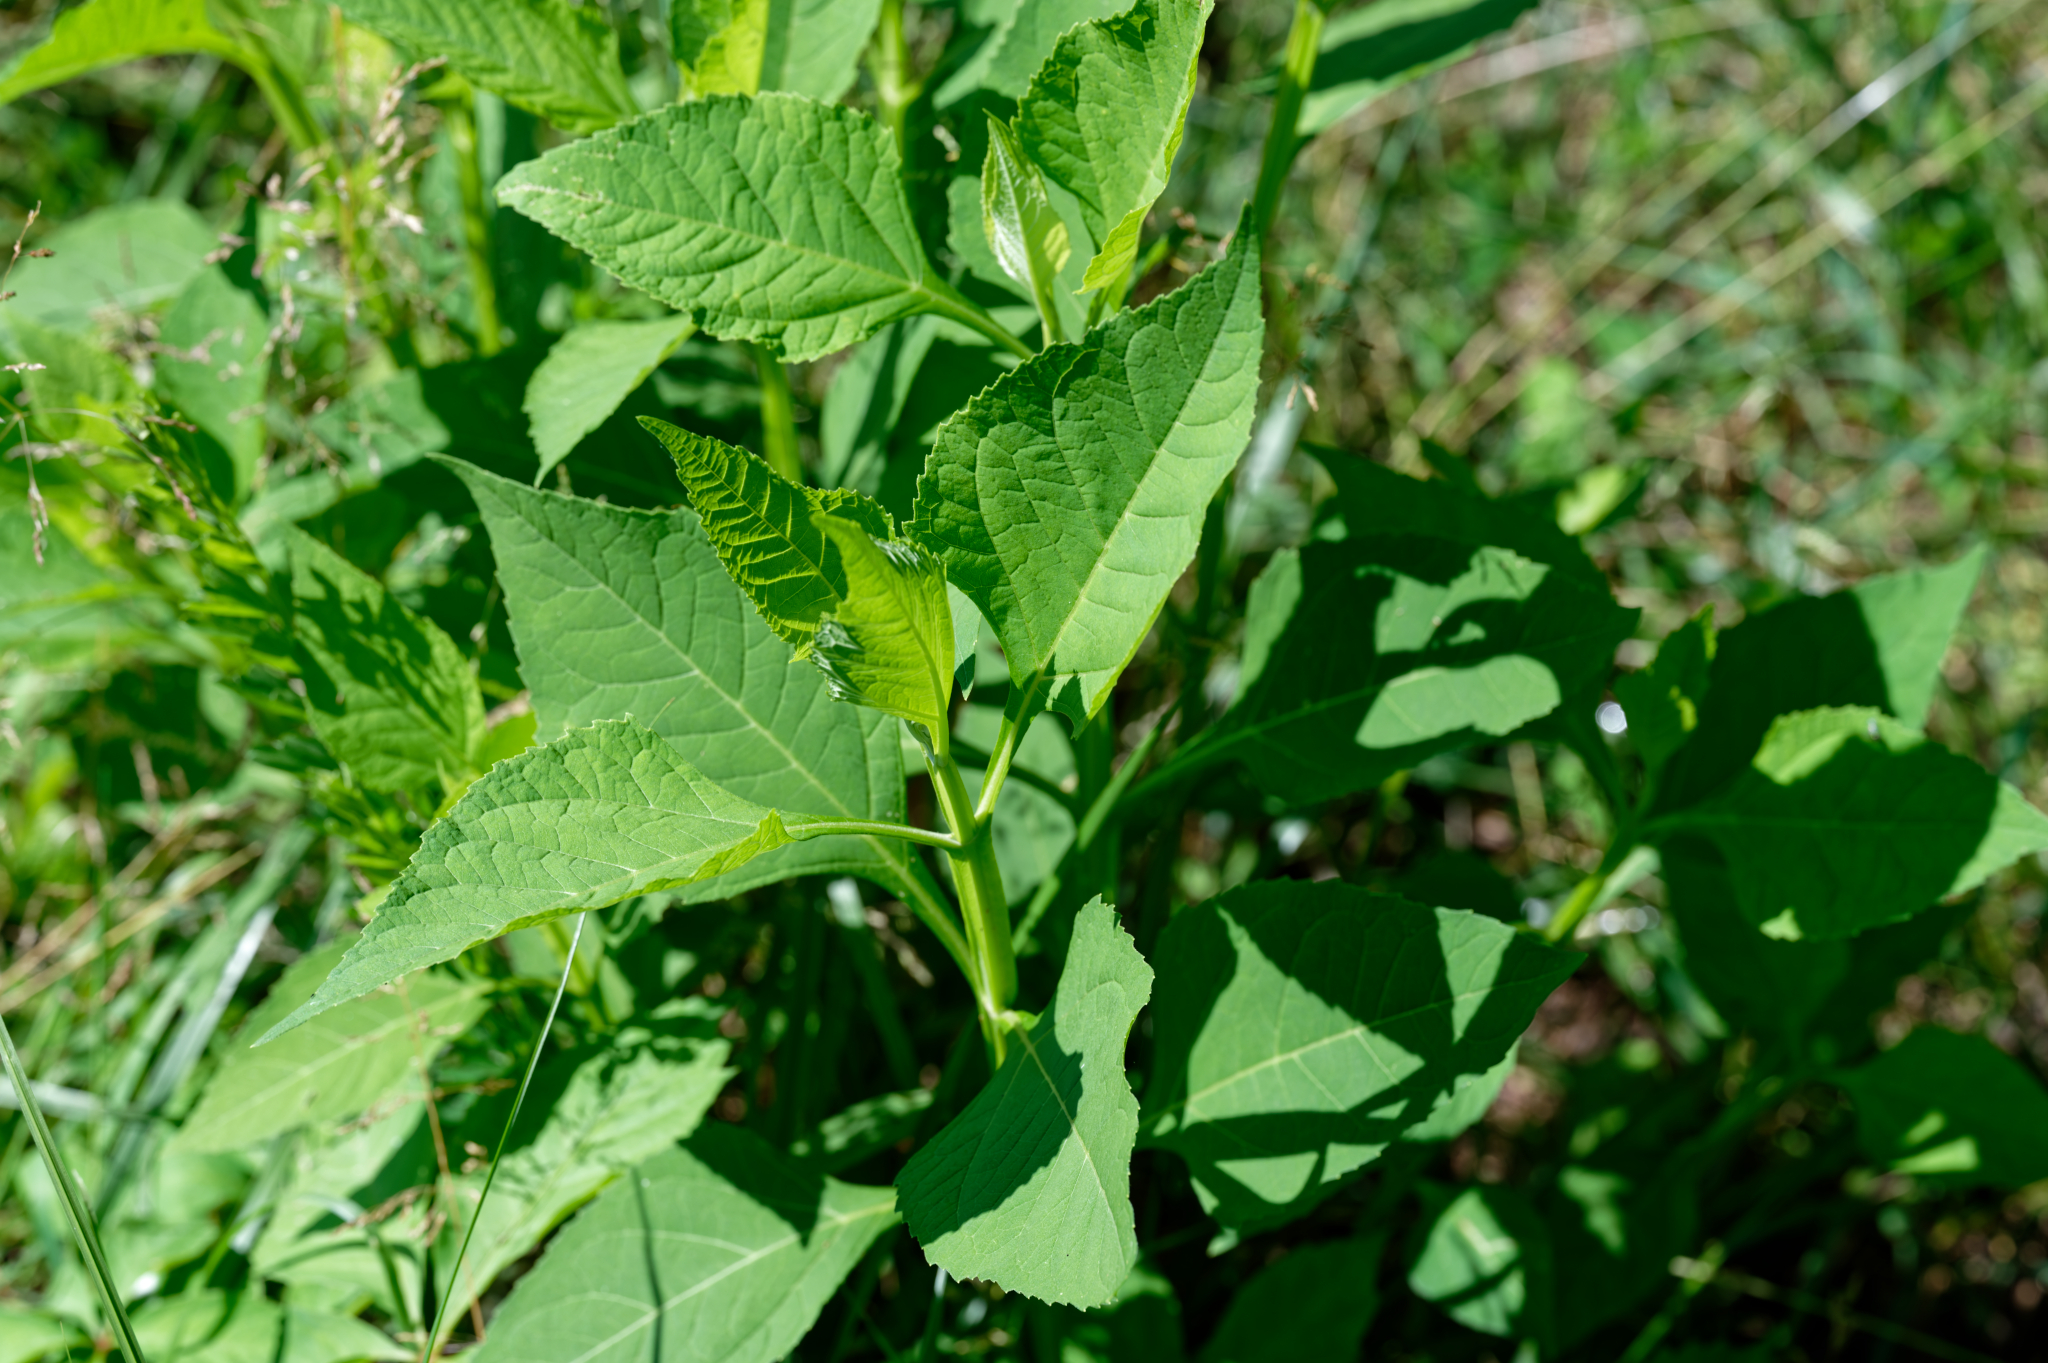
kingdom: Plantae
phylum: Tracheophyta
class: Magnoliopsida
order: Asterales
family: Asteraceae
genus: Verbesina
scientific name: Verbesina occidentalis
